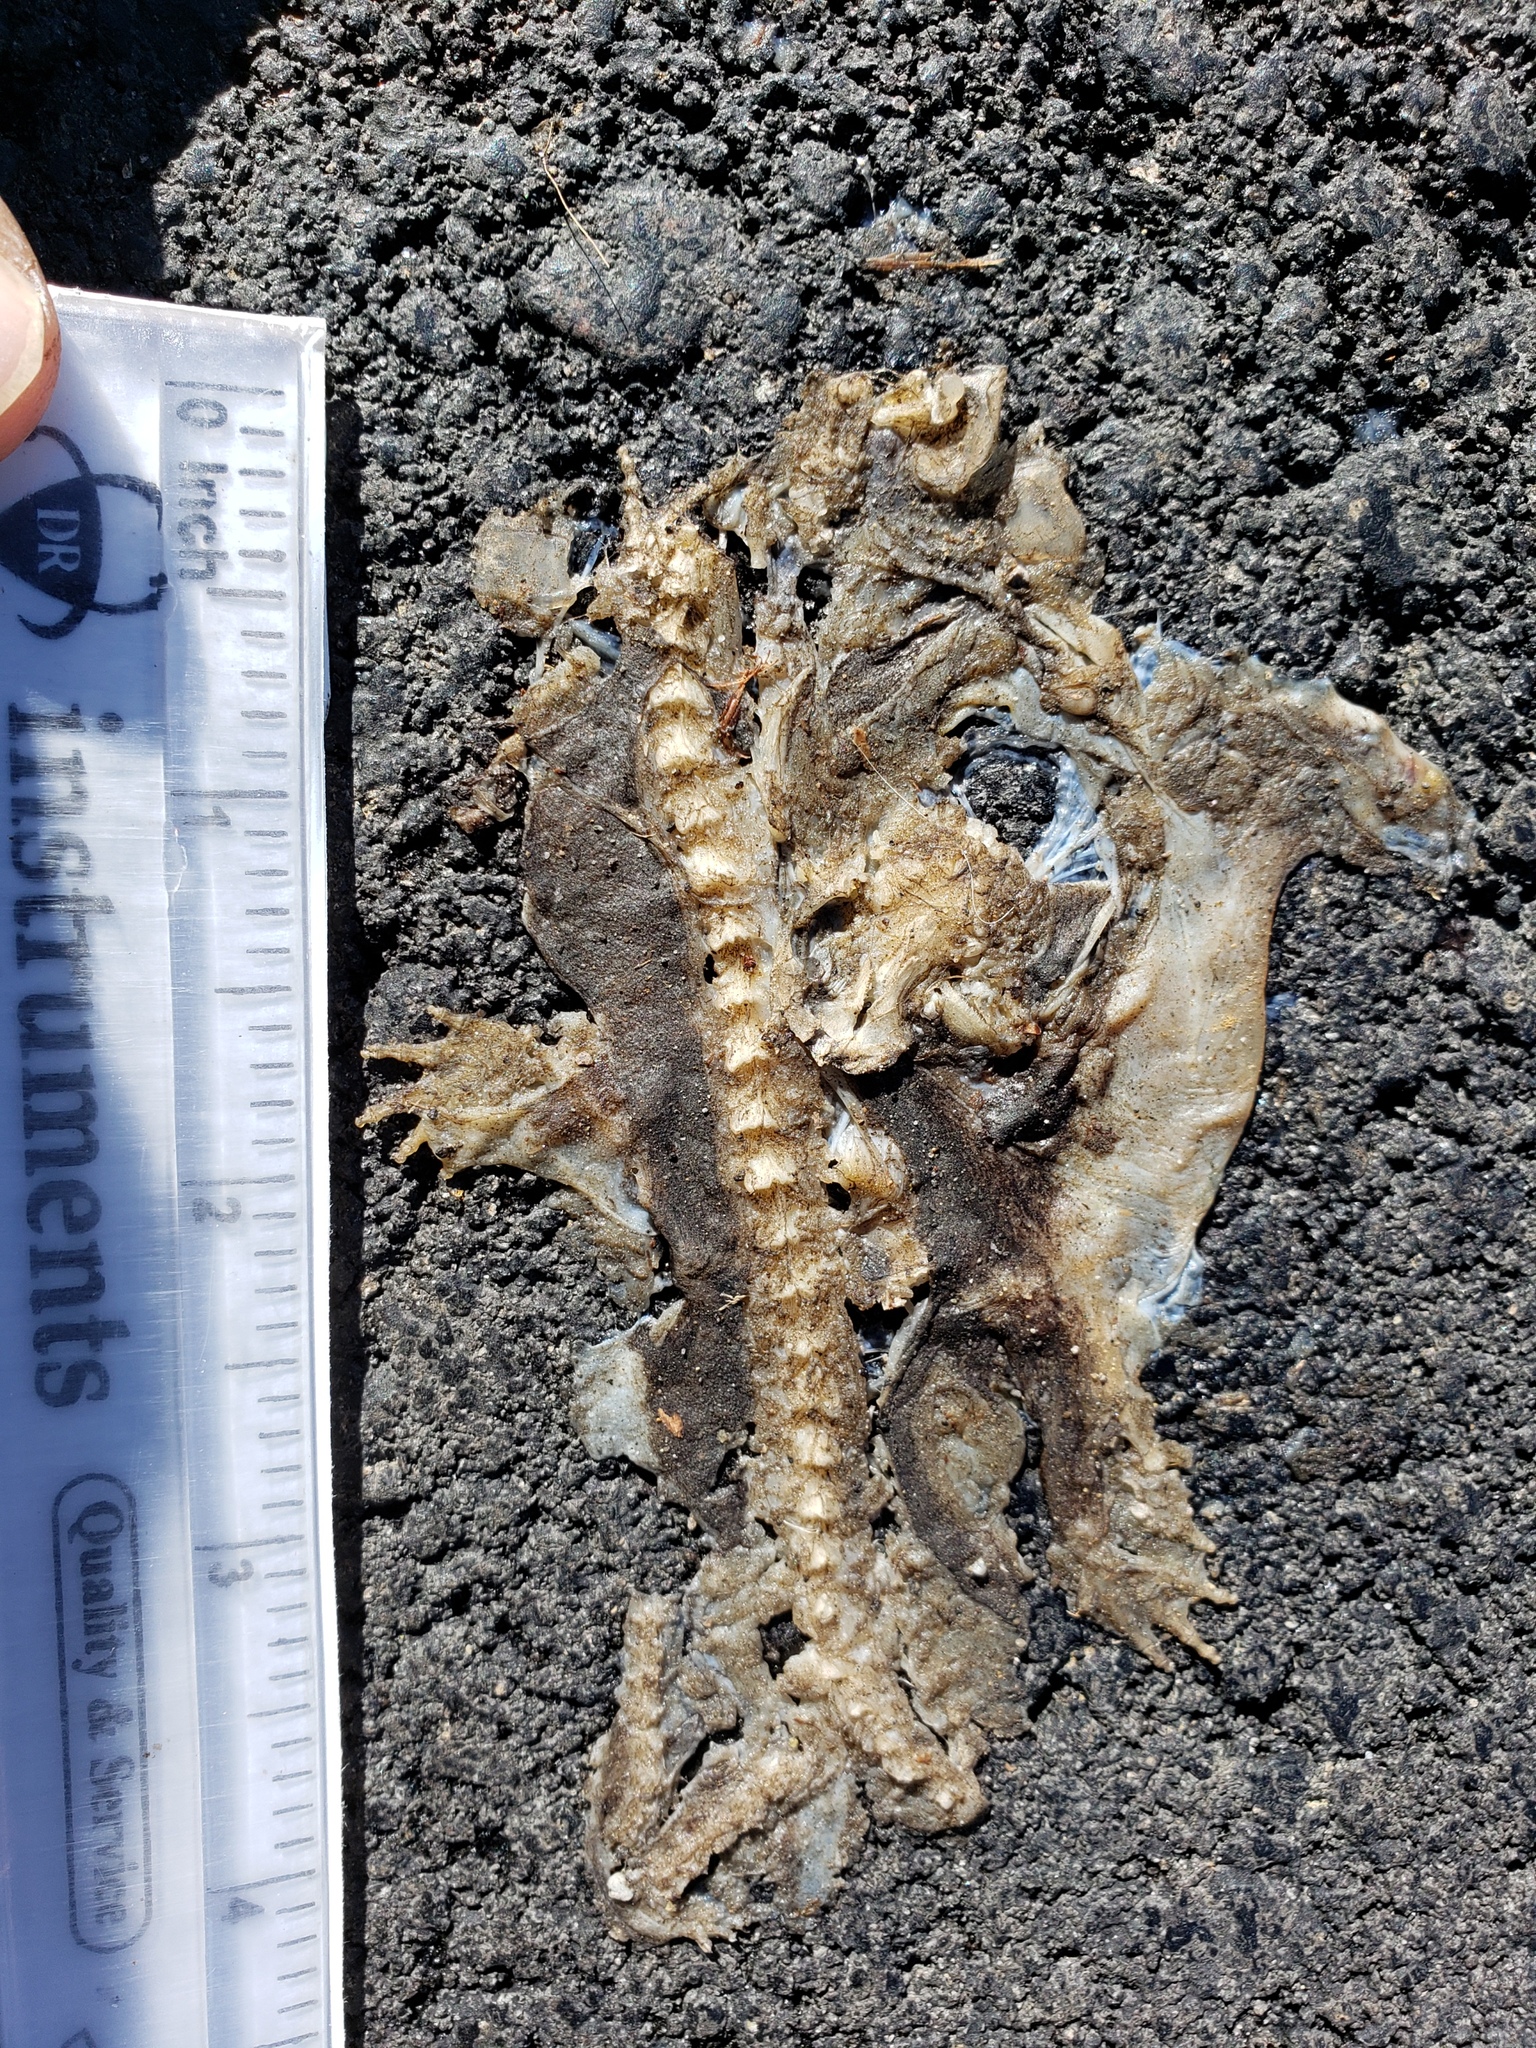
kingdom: Animalia
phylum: Chordata
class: Amphibia
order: Caudata
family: Salamandridae
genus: Taricha
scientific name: Taricha
